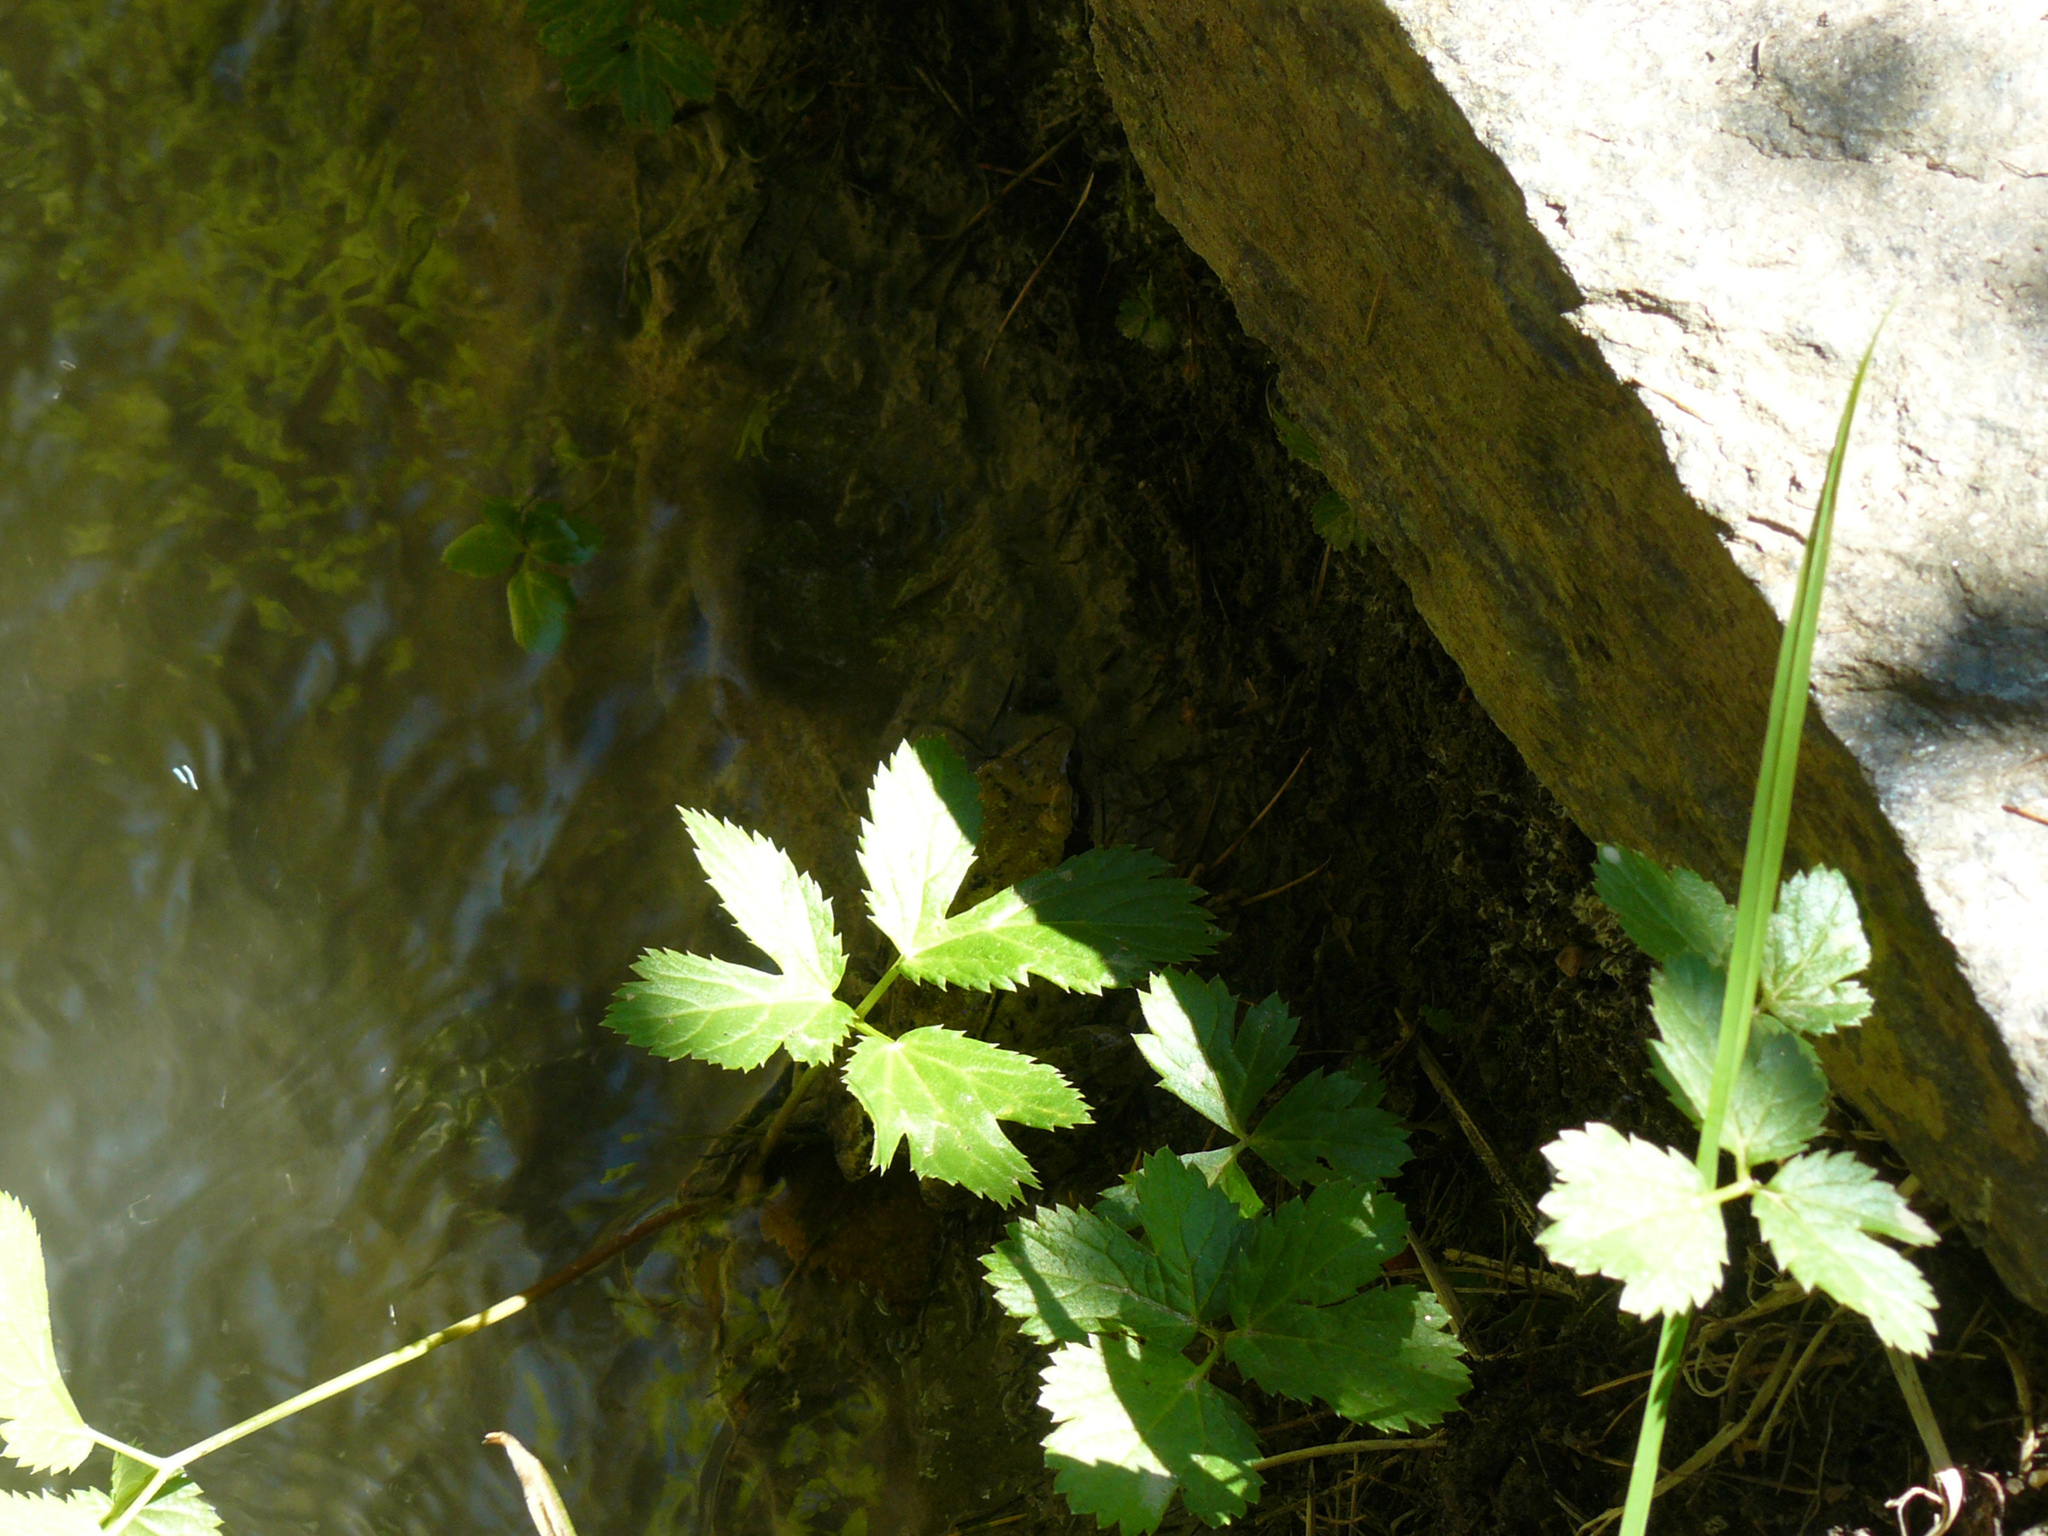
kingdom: Animalia
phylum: Chordata
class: Amphibia
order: Anura
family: Ranidae
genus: Rana
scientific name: Rana temporaria
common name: Common frog
